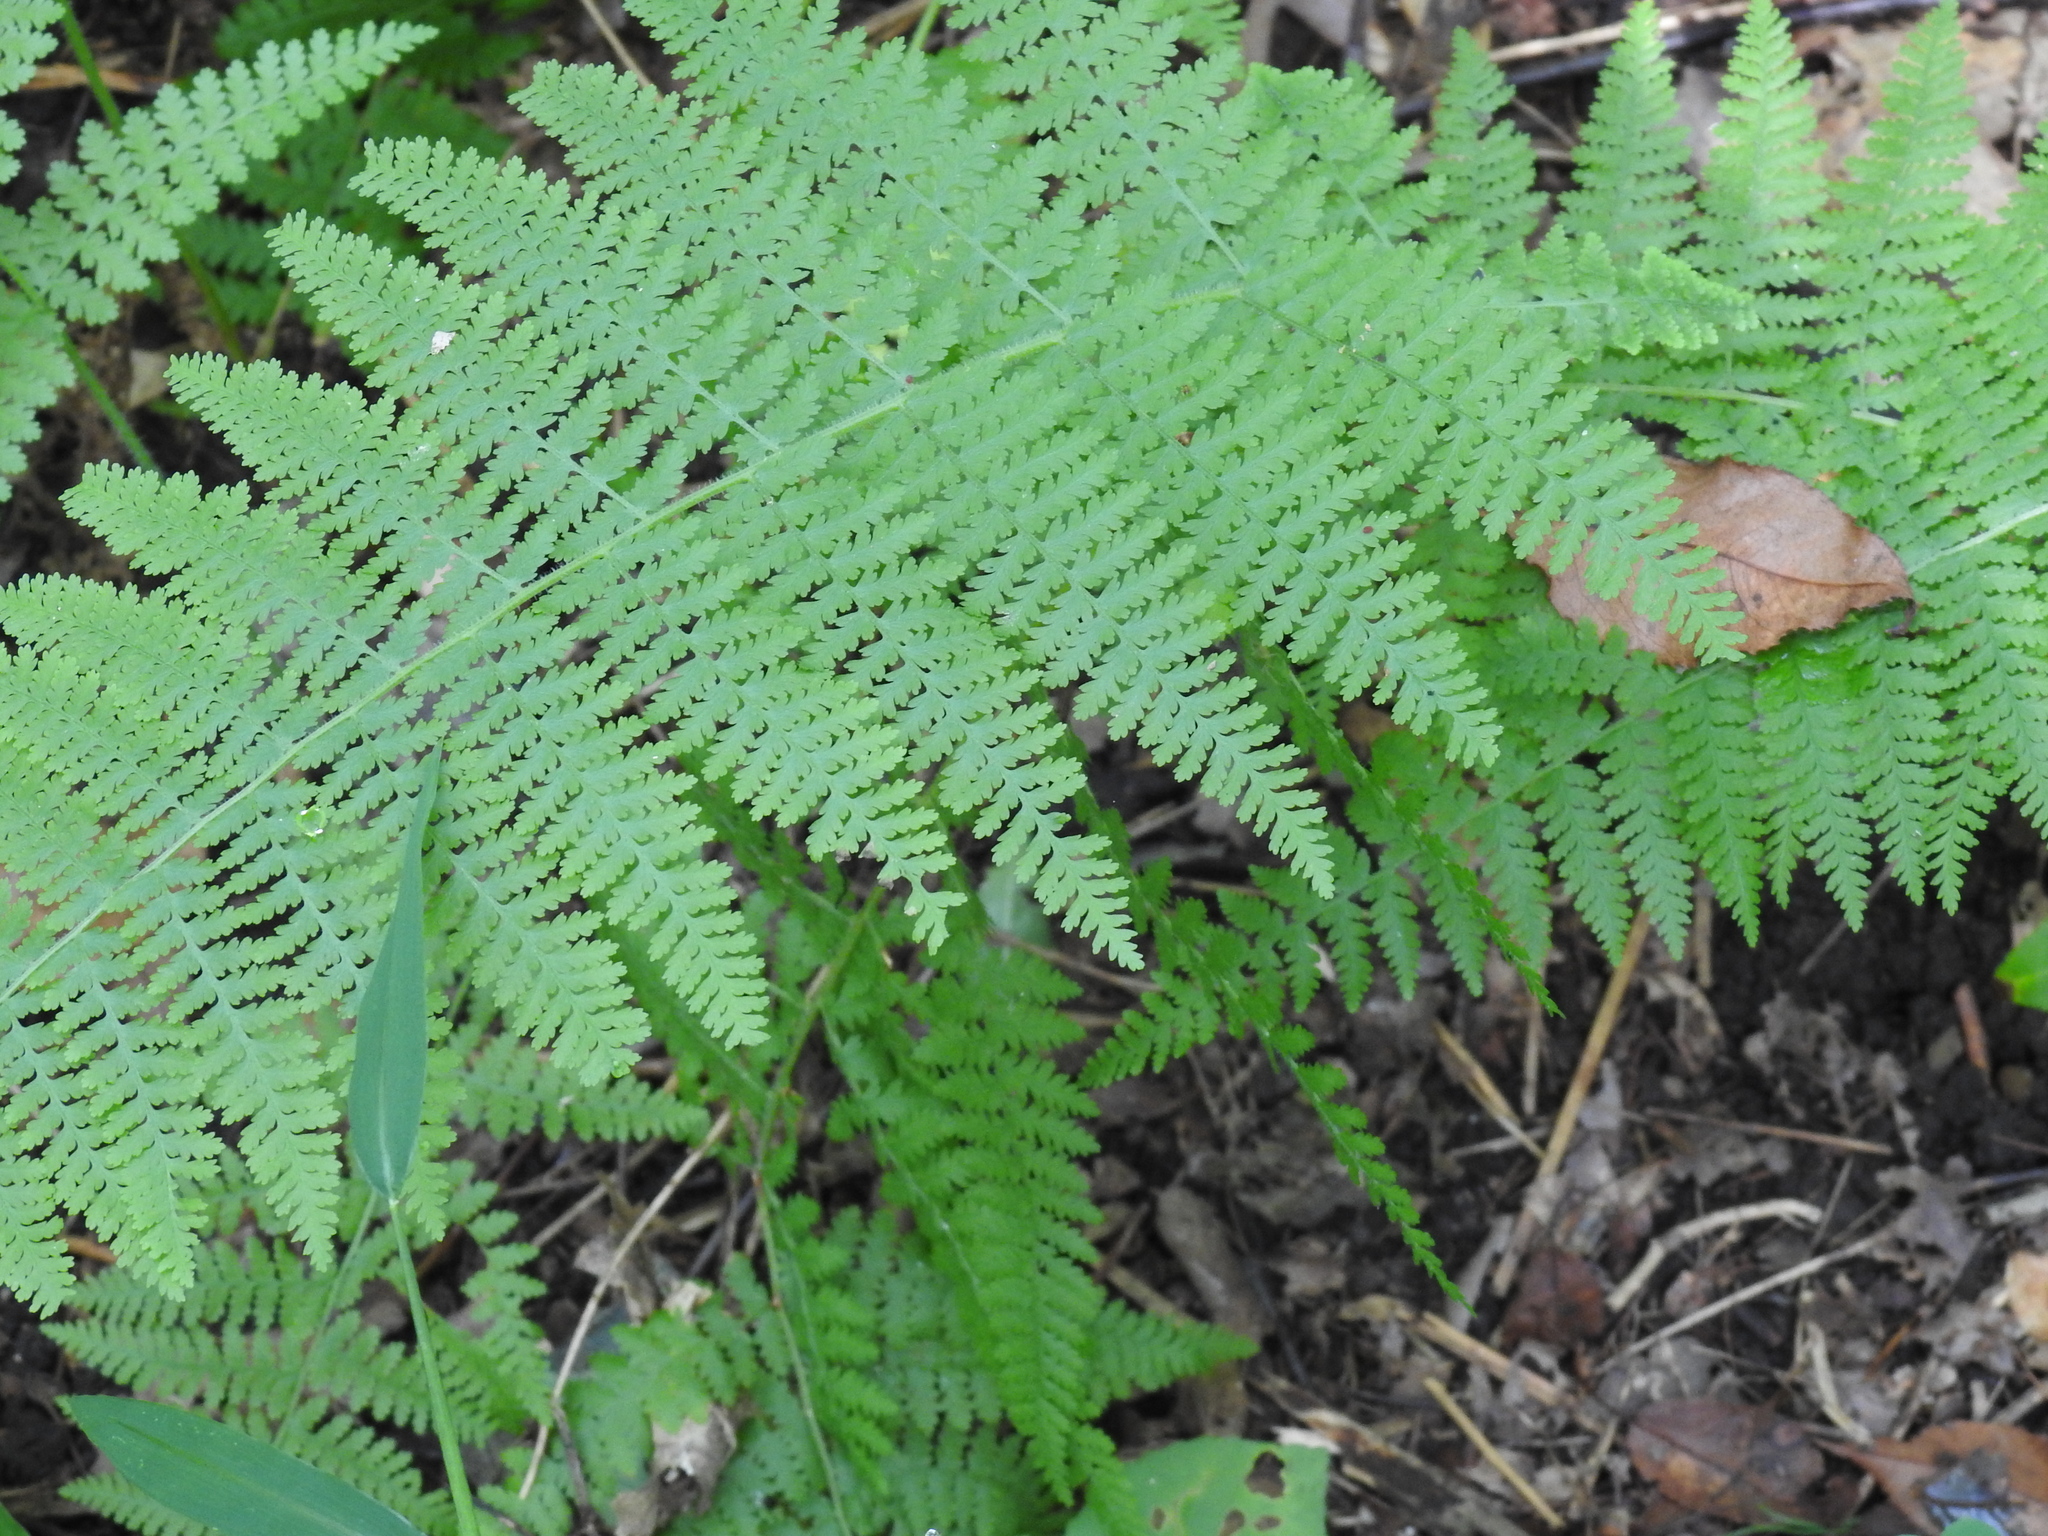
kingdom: Plantae
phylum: Tracheophyta
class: Polypodiopsida
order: Polypodiales
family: Dennstaedtiaceae
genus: Sitobolium
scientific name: Sitobolium punctilobum
